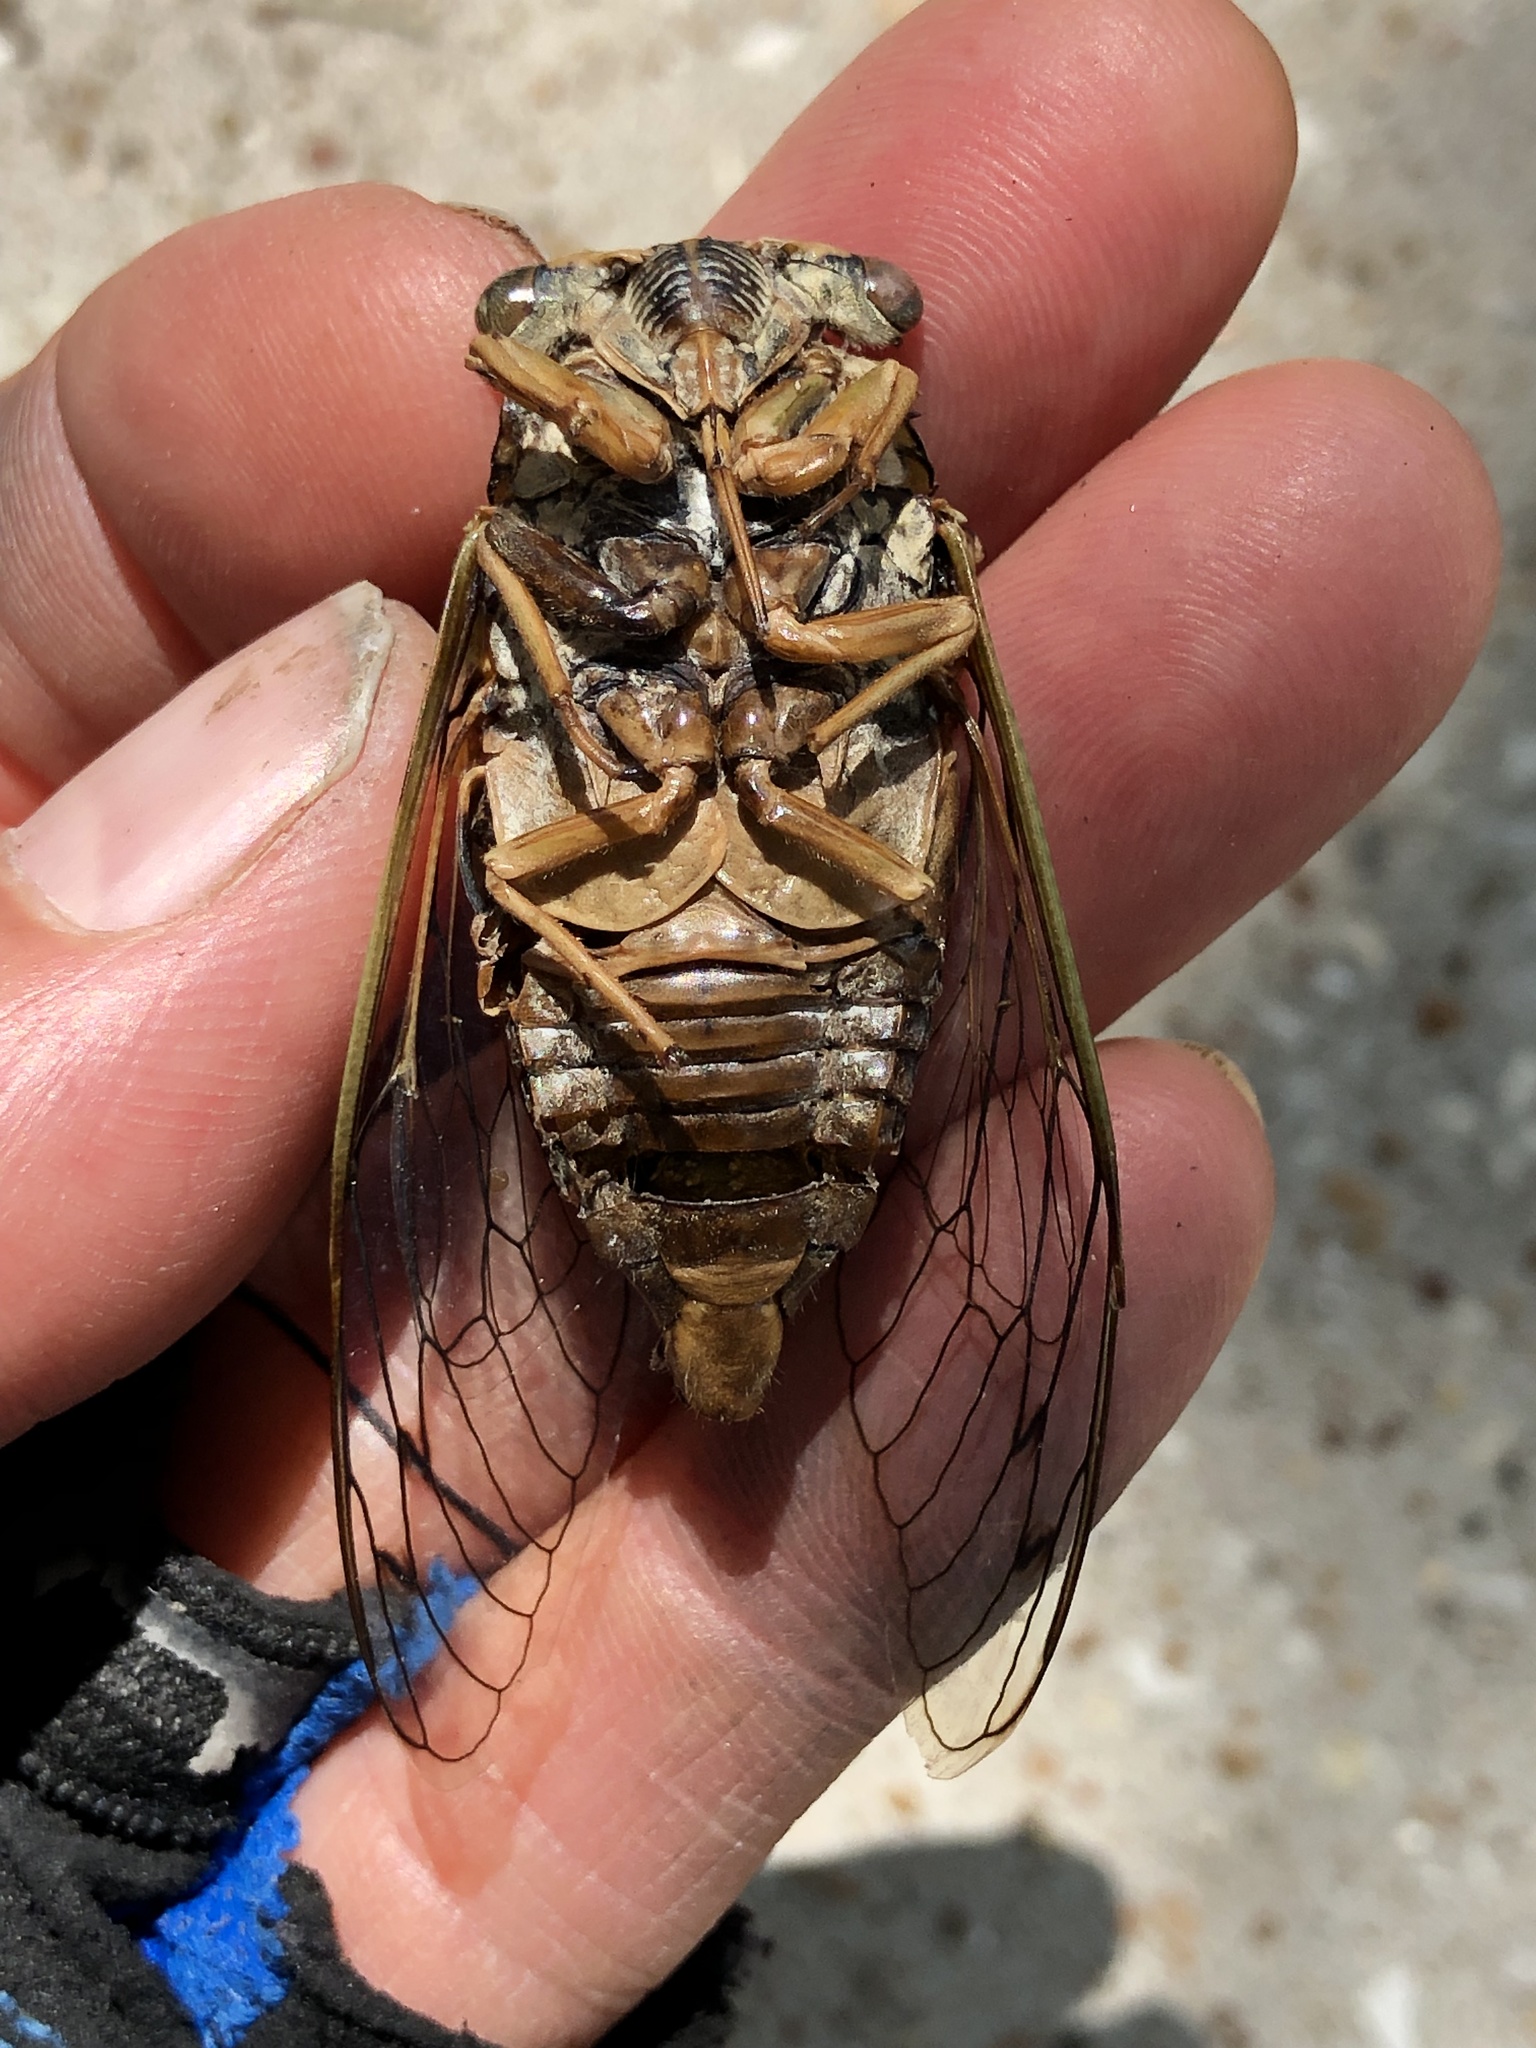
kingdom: Animalia
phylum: Arthropoda
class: Insecta
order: Hemiptera
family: Cicadidae
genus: Megatibicen
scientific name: Megatibicen resh
